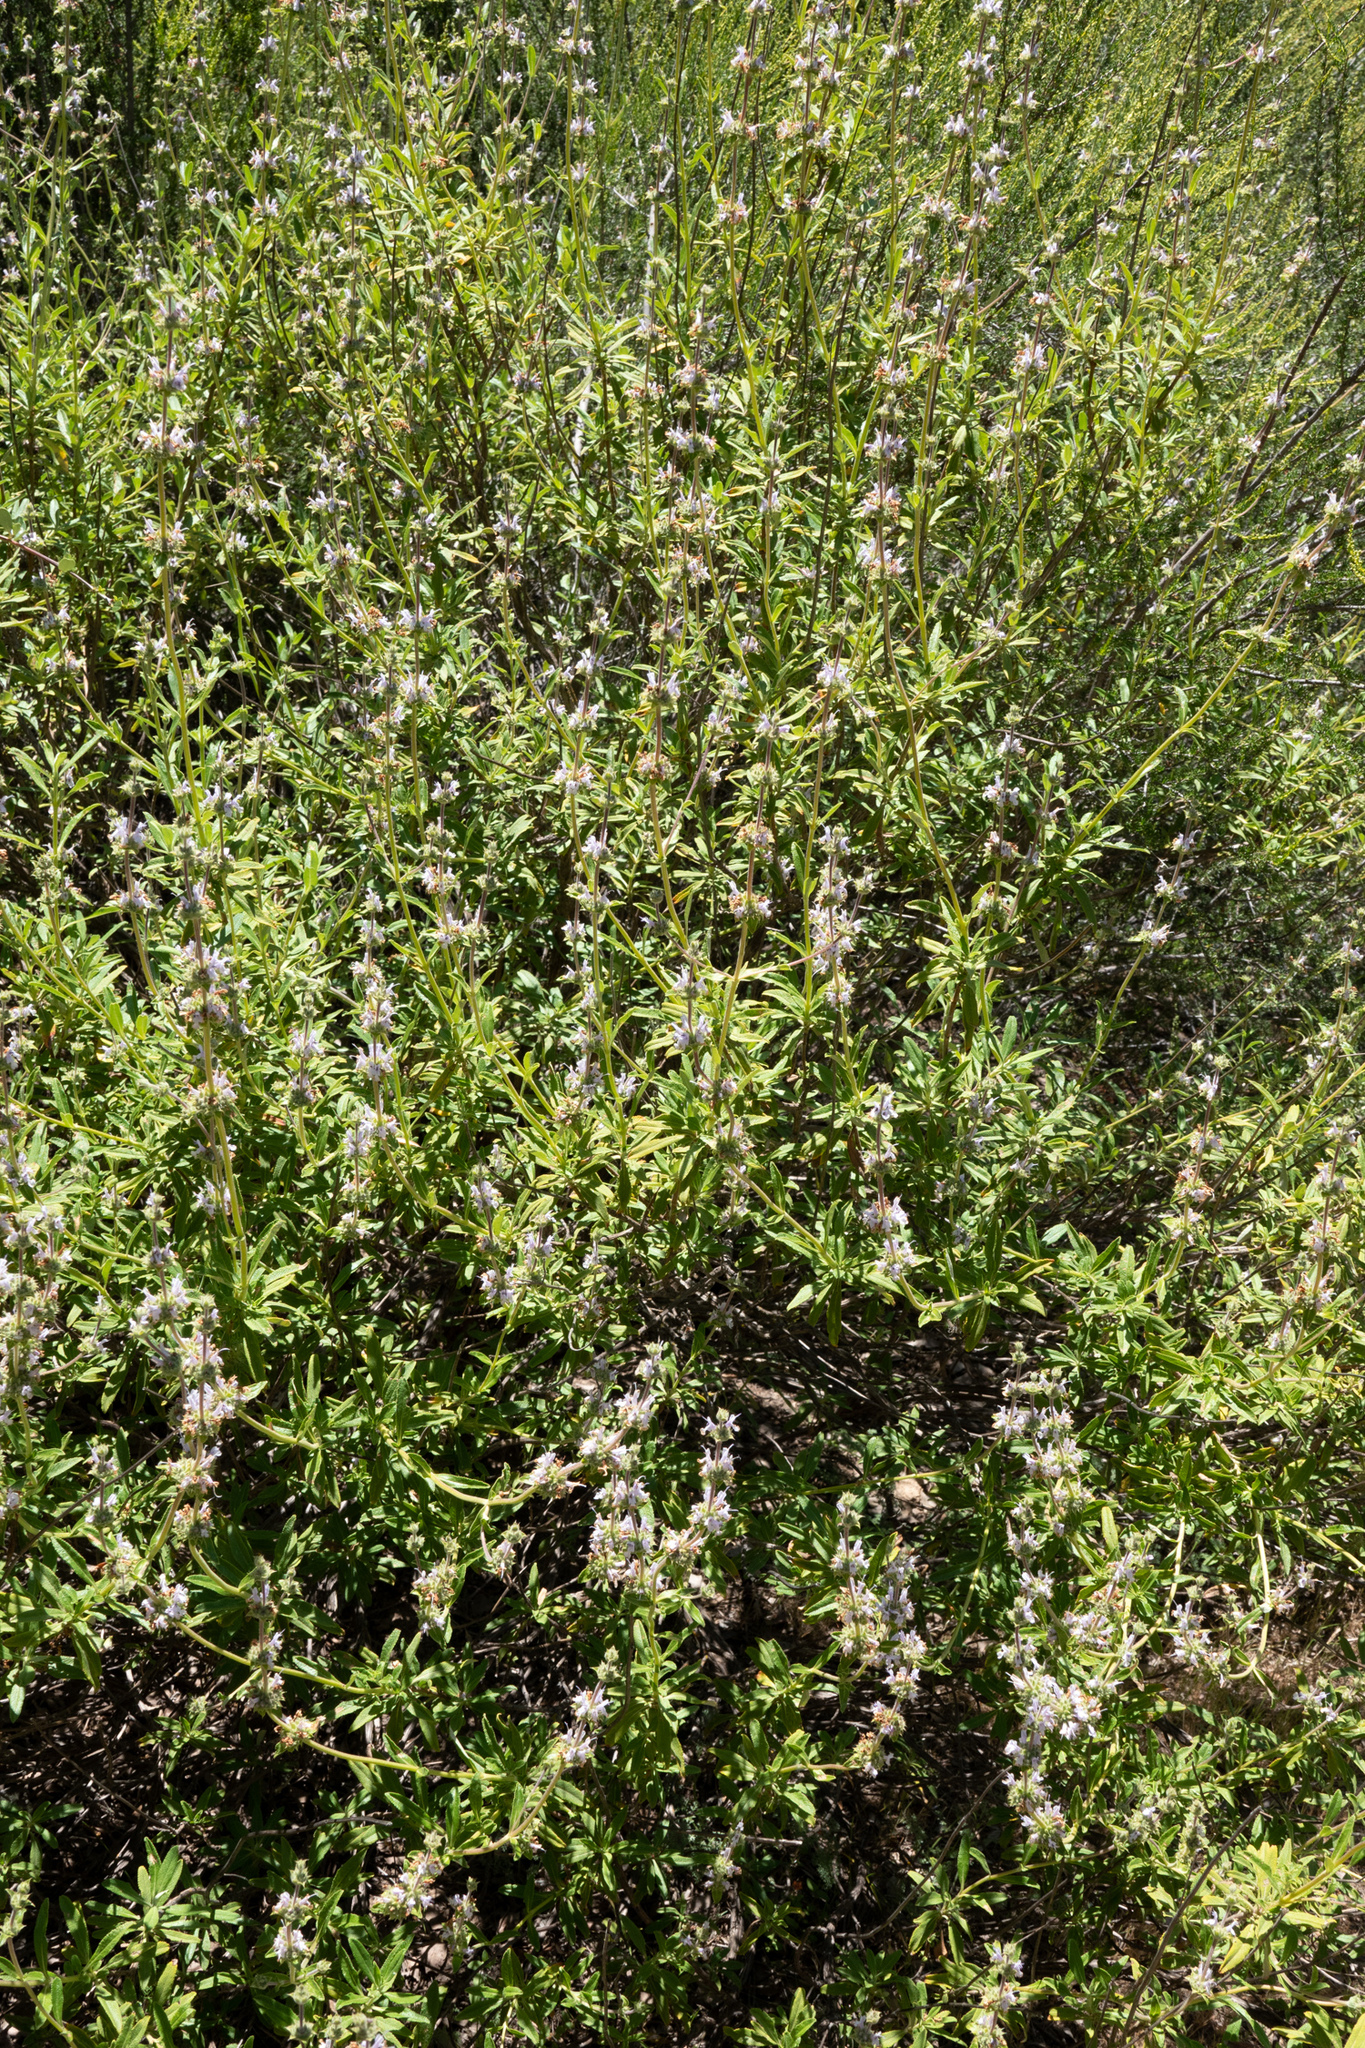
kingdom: Plantae
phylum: Tracheophyta
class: Magnoliopsida
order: Lamiales
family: Lamiaceae
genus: Salvia
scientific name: Salvia mellifera
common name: Black sage
